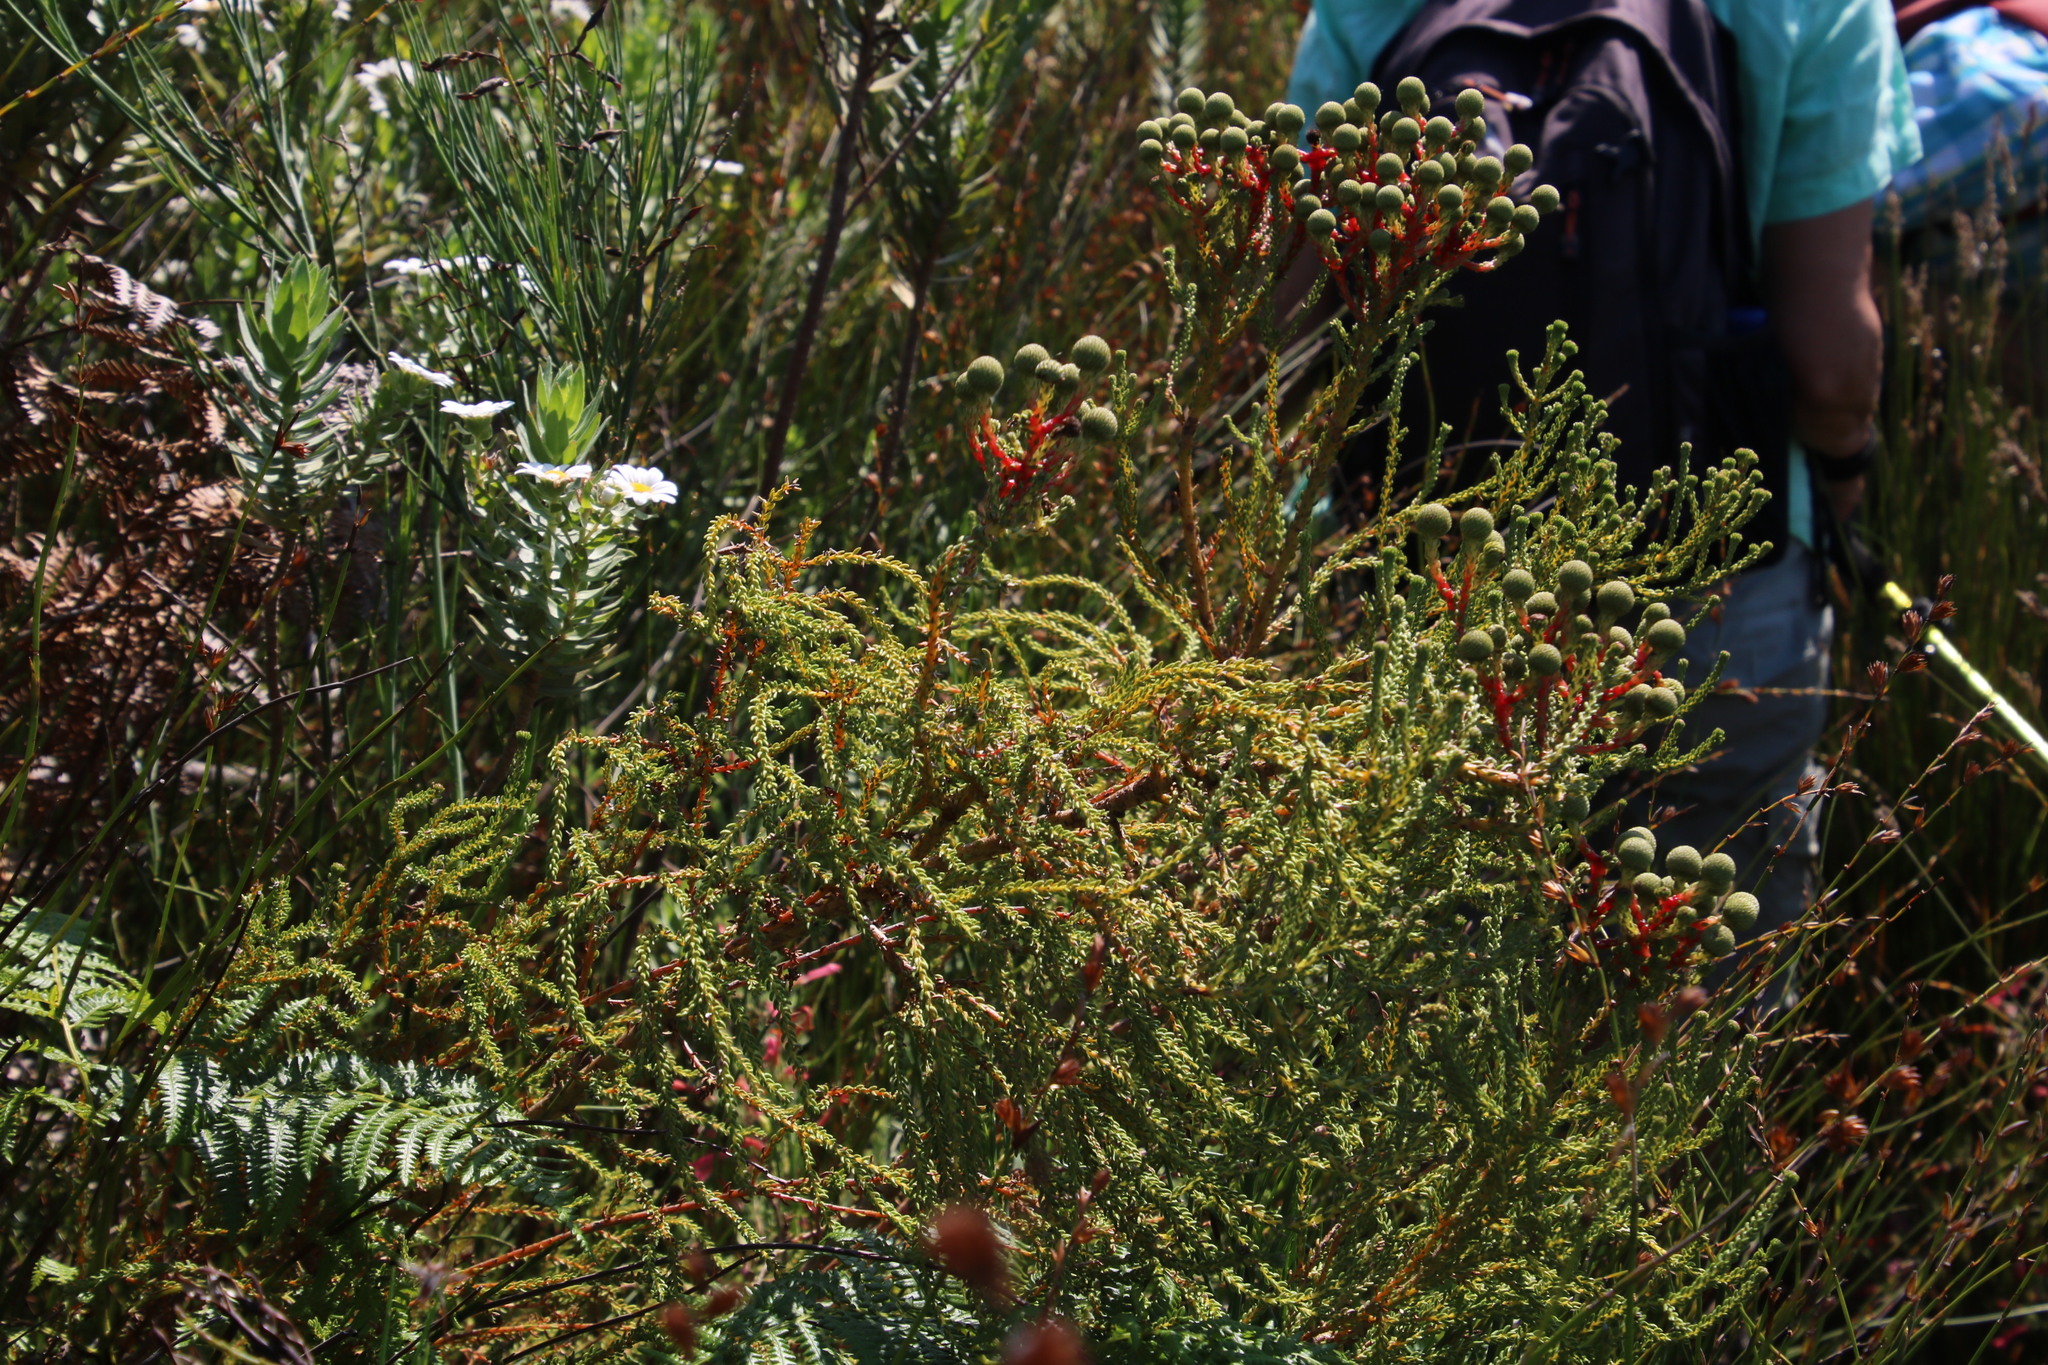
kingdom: Plantae
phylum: Tracheophyta
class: Magnoliopsida
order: Bruniales
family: Bruniaceae
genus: Berzelia
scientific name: Berzelia abrotanoides
